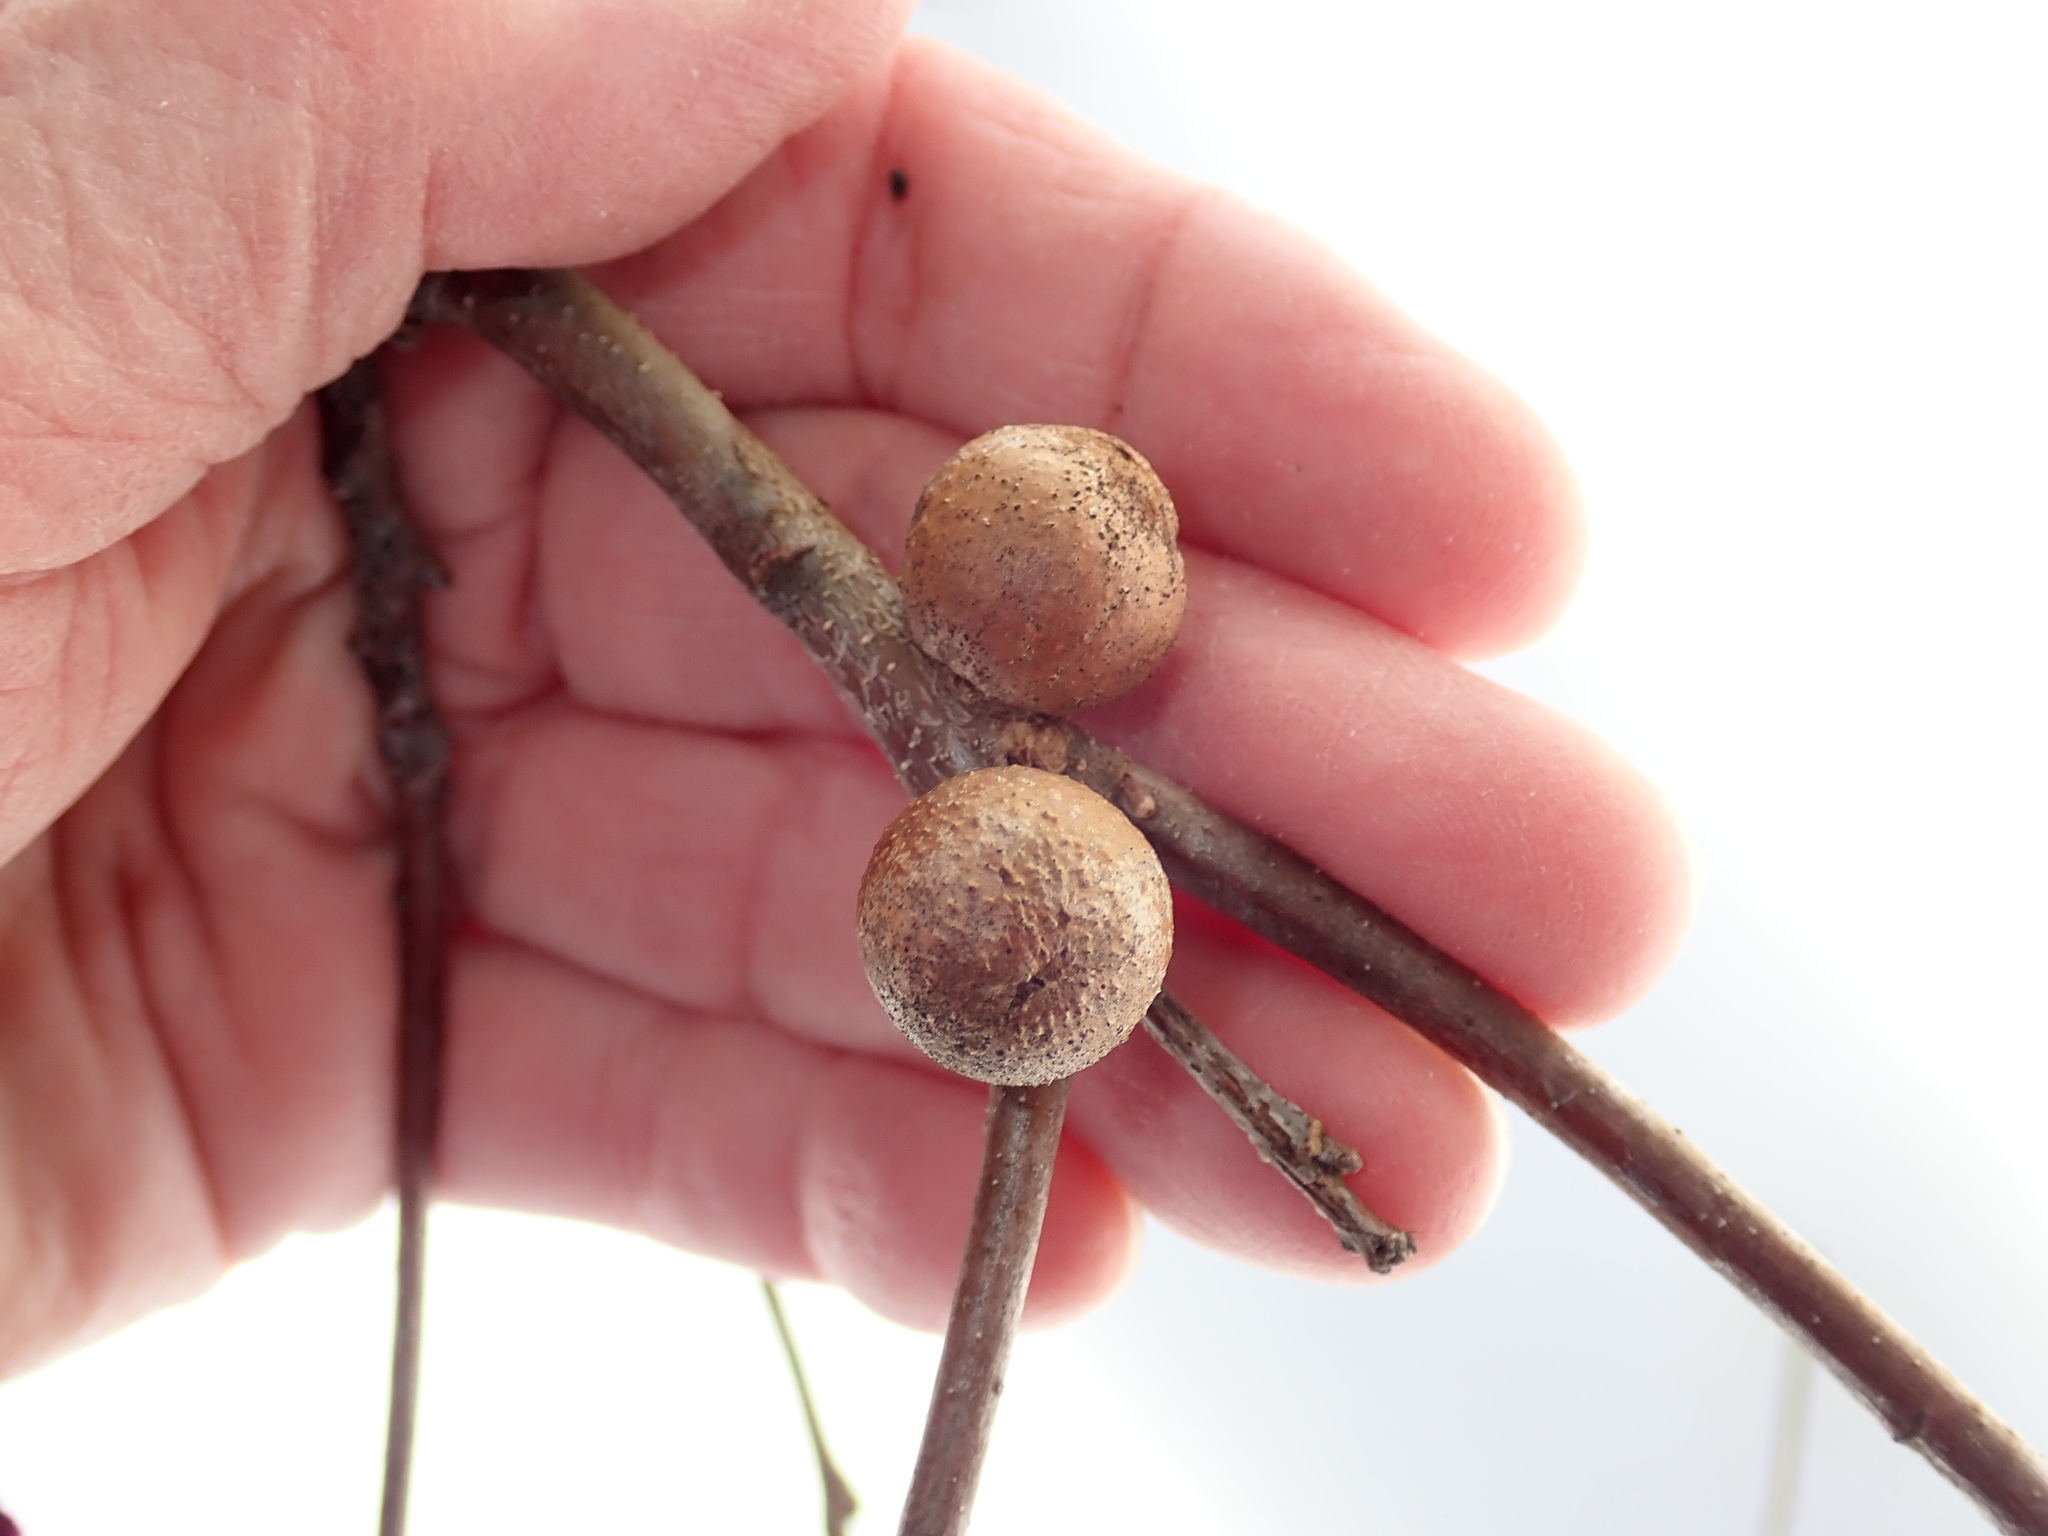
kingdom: Animalia
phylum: Arthropoda
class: Insecta
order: Hymenoptera
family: Cynipidae
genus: Disholcaspis
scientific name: Disholcaspis quercusglobulus
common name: Round bullet gall wasp
